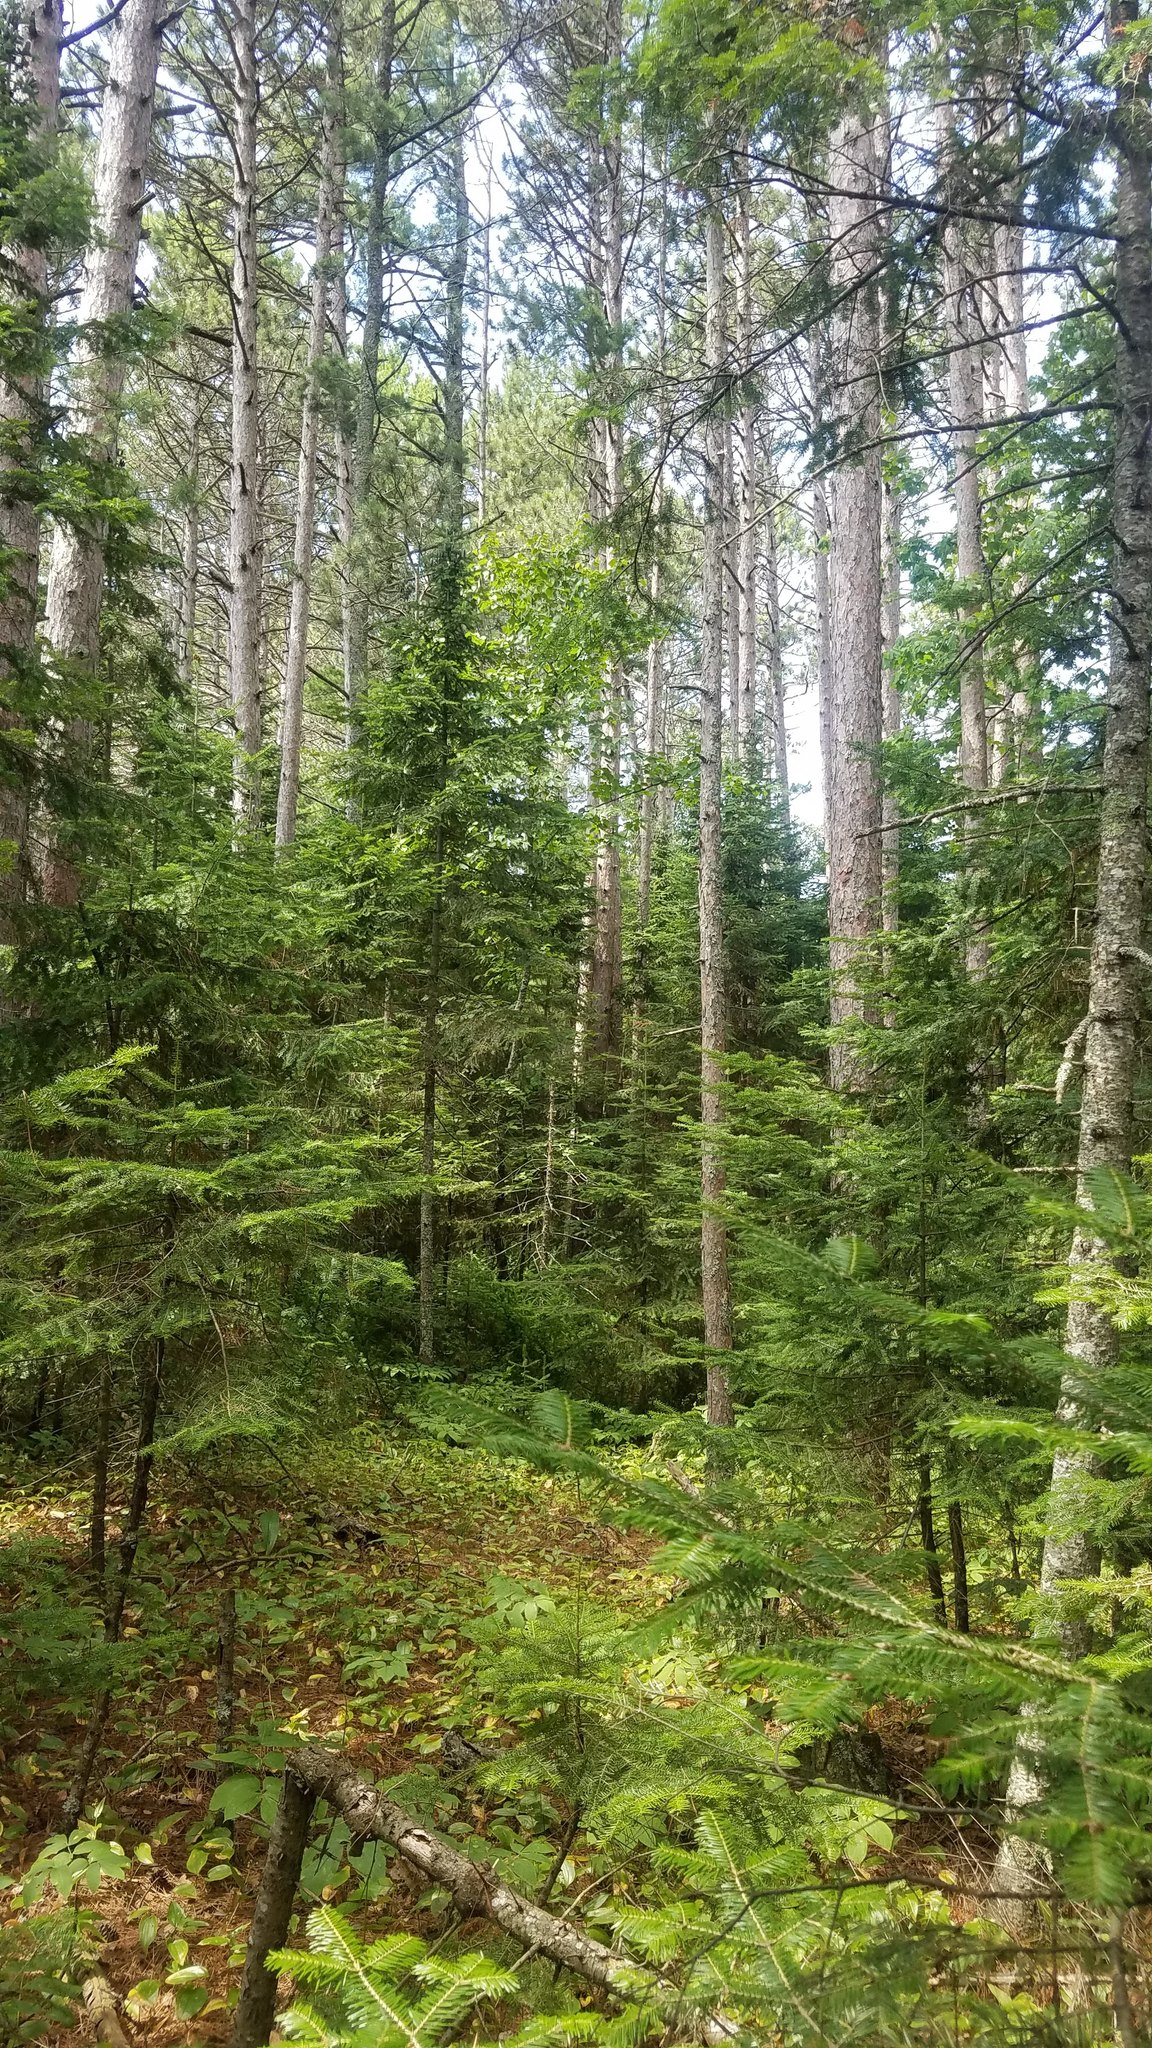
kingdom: Plantae
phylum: Tracheophyta
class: Pinopsida
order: Pinales
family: Pinaceae
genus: Pinus
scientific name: Pinus resinosa
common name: Norway pine
